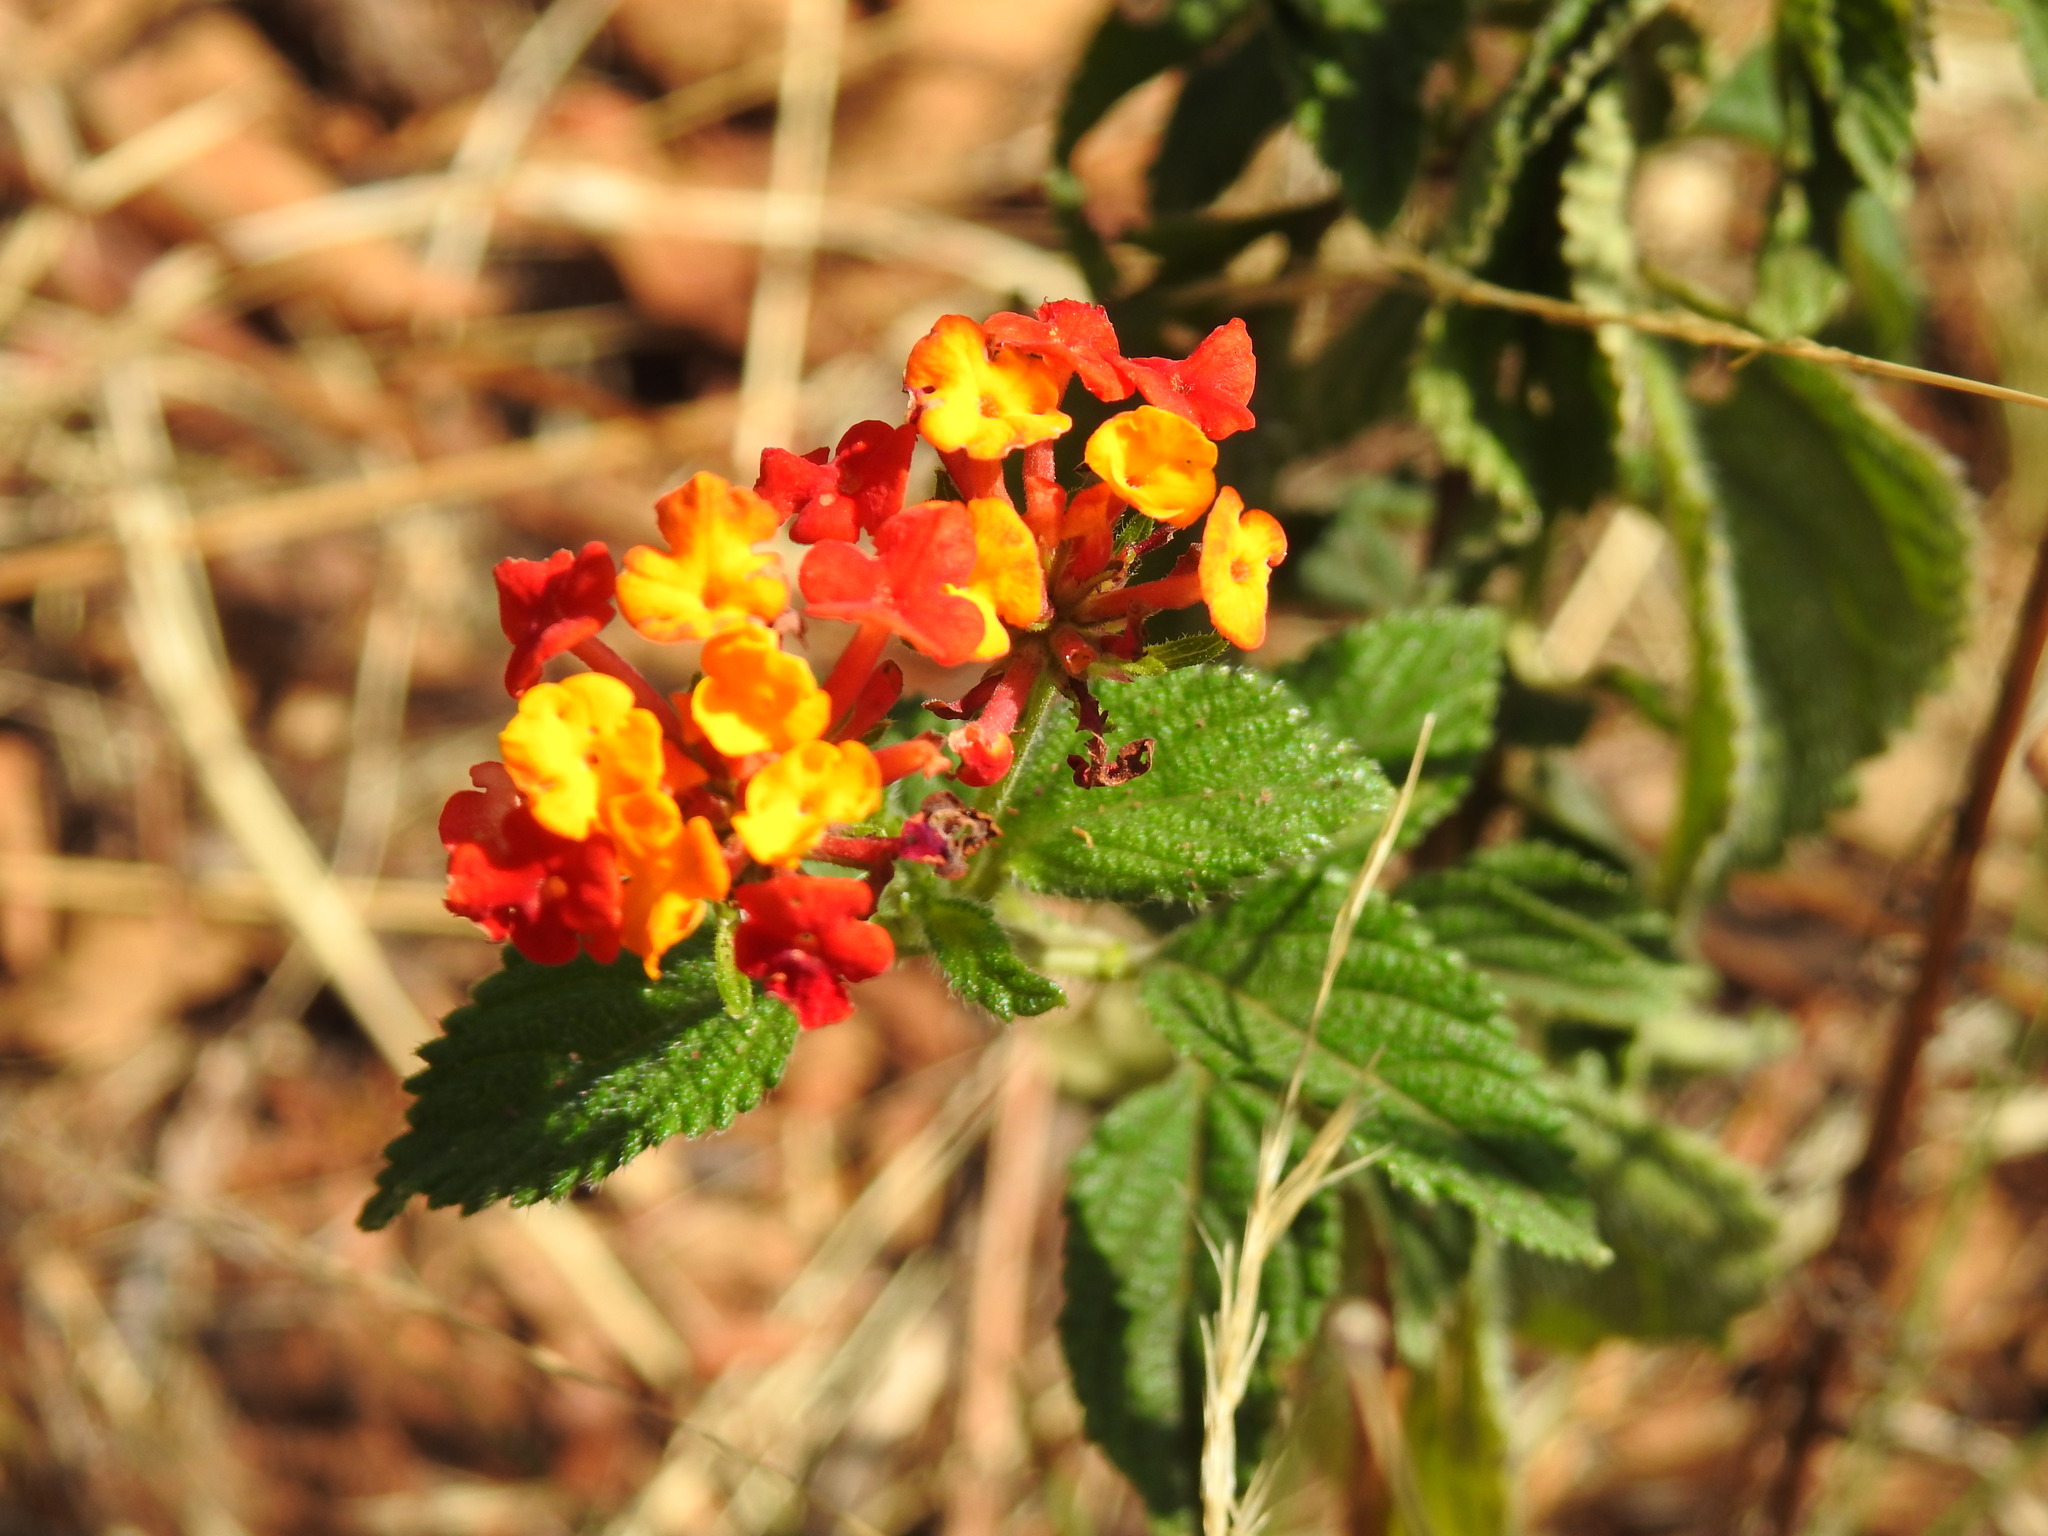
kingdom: Plantae
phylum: Tracheophyta
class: Magnoliopsida
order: Lamiales
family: Verbenaceae
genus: Lantana
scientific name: Lantana camara
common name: Lantana
